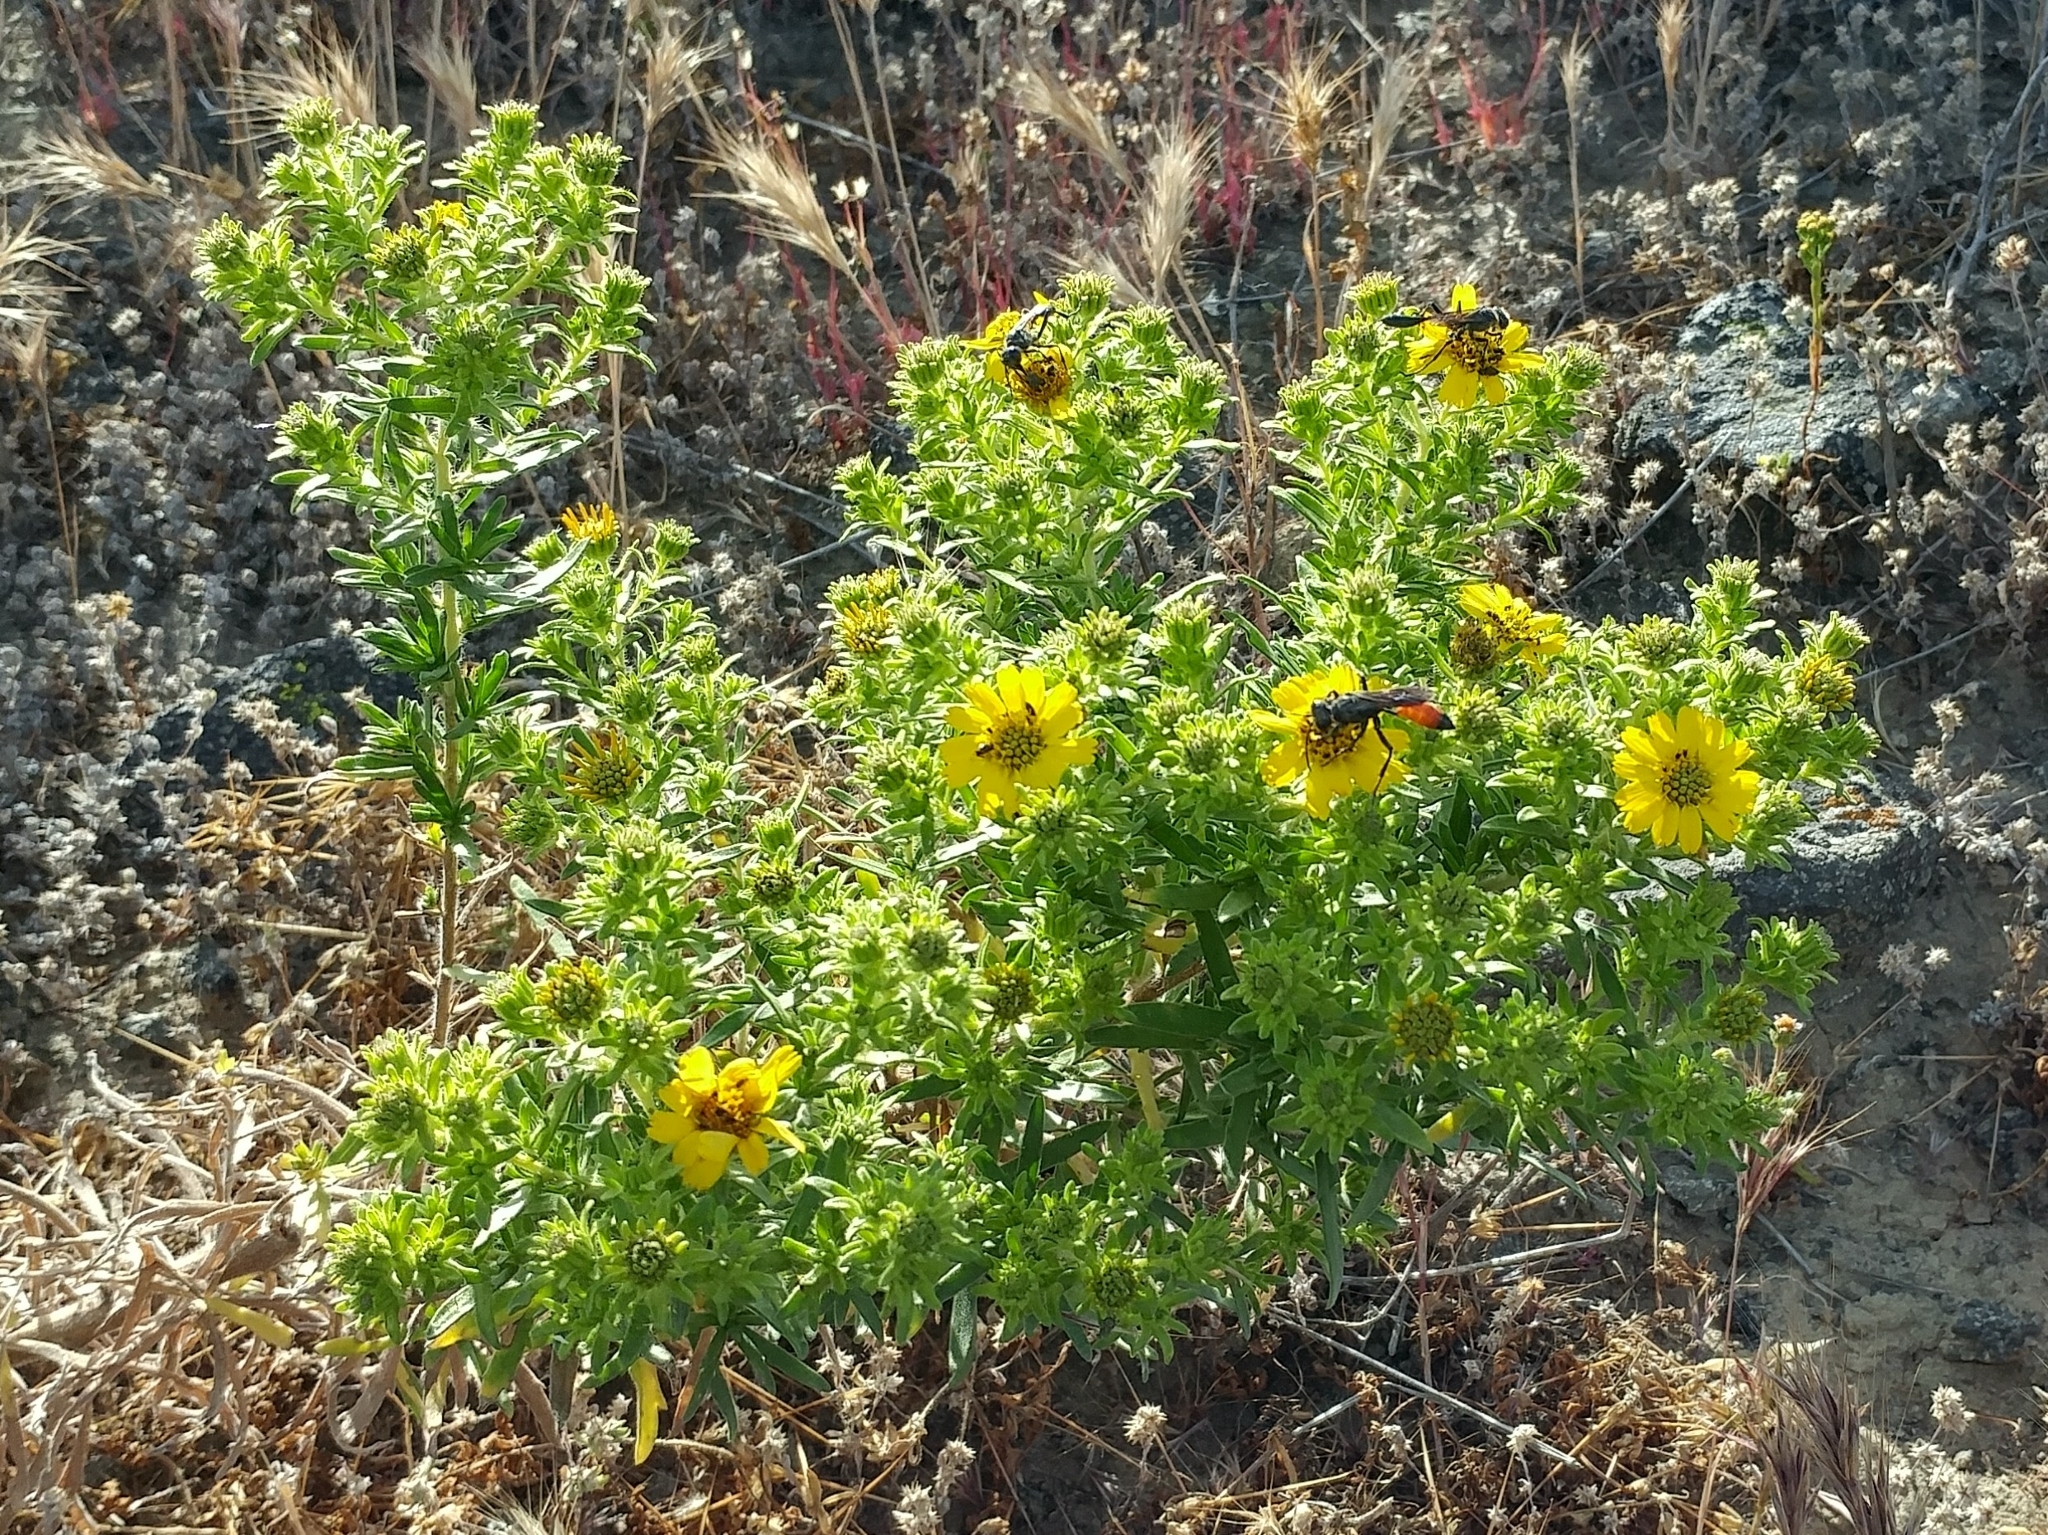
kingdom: Plantae
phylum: Tracheophyta
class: Magnoliopsida
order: Asterales
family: Asteraceae
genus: Deinandra
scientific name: Deinandra clementina
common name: Island tarplant
